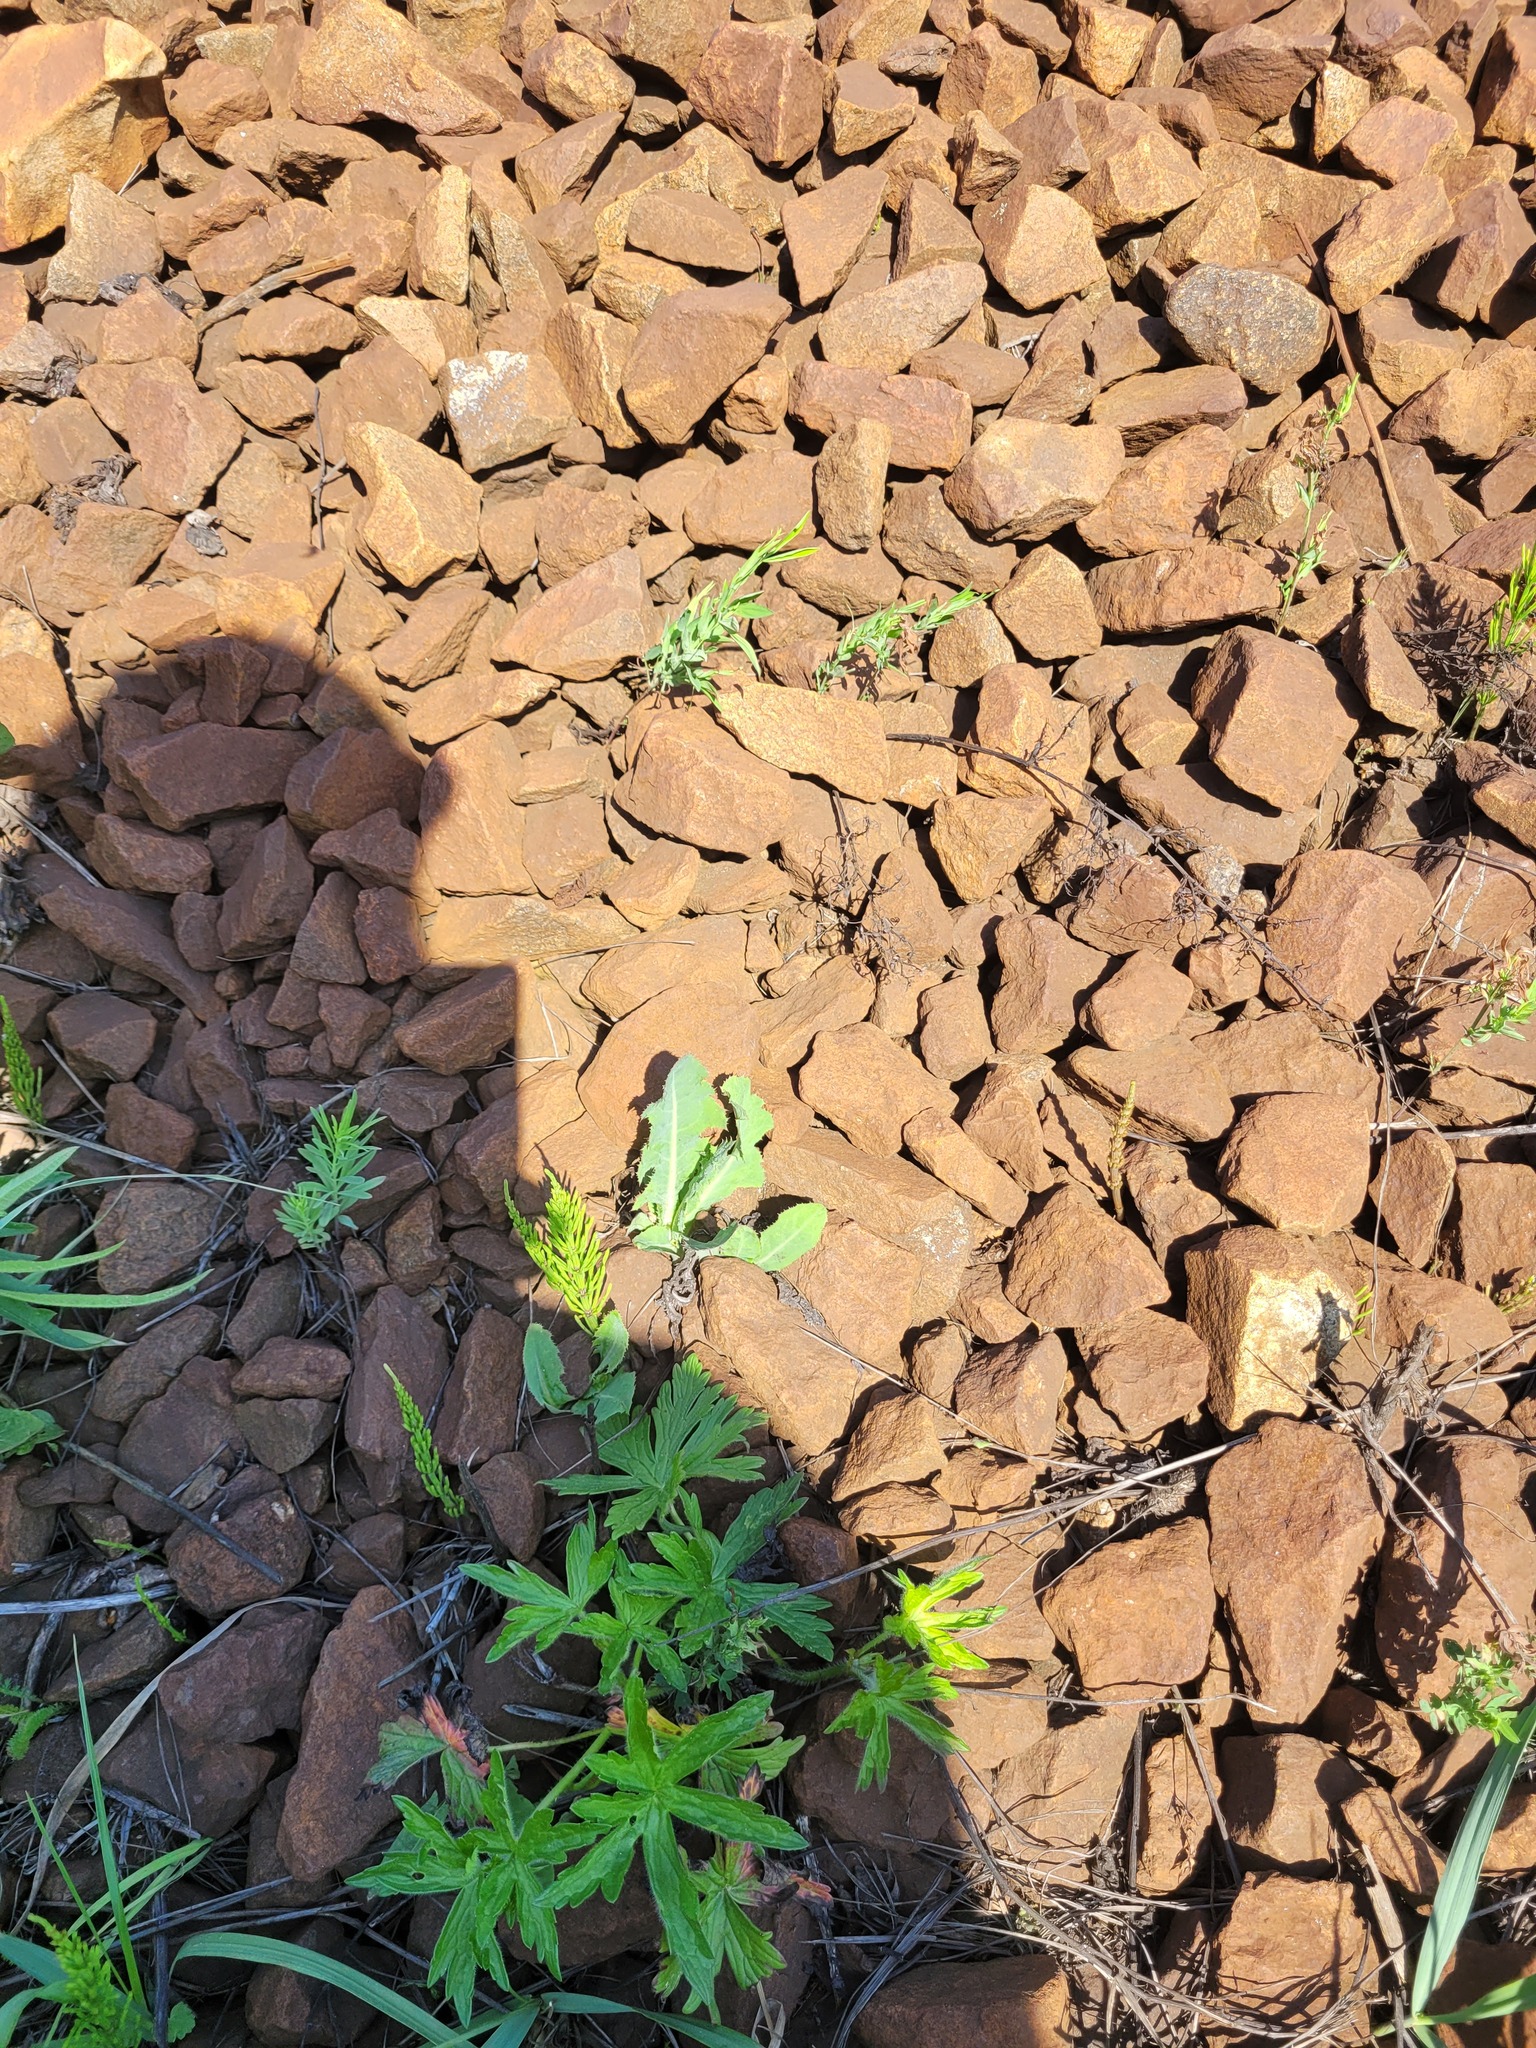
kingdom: Plantae
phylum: Tracheophyta
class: Magnoliopsida
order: Asterales
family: Asteraceae
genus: Sonchus
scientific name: Sonchus arvensis
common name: Perennial sow-thistle
